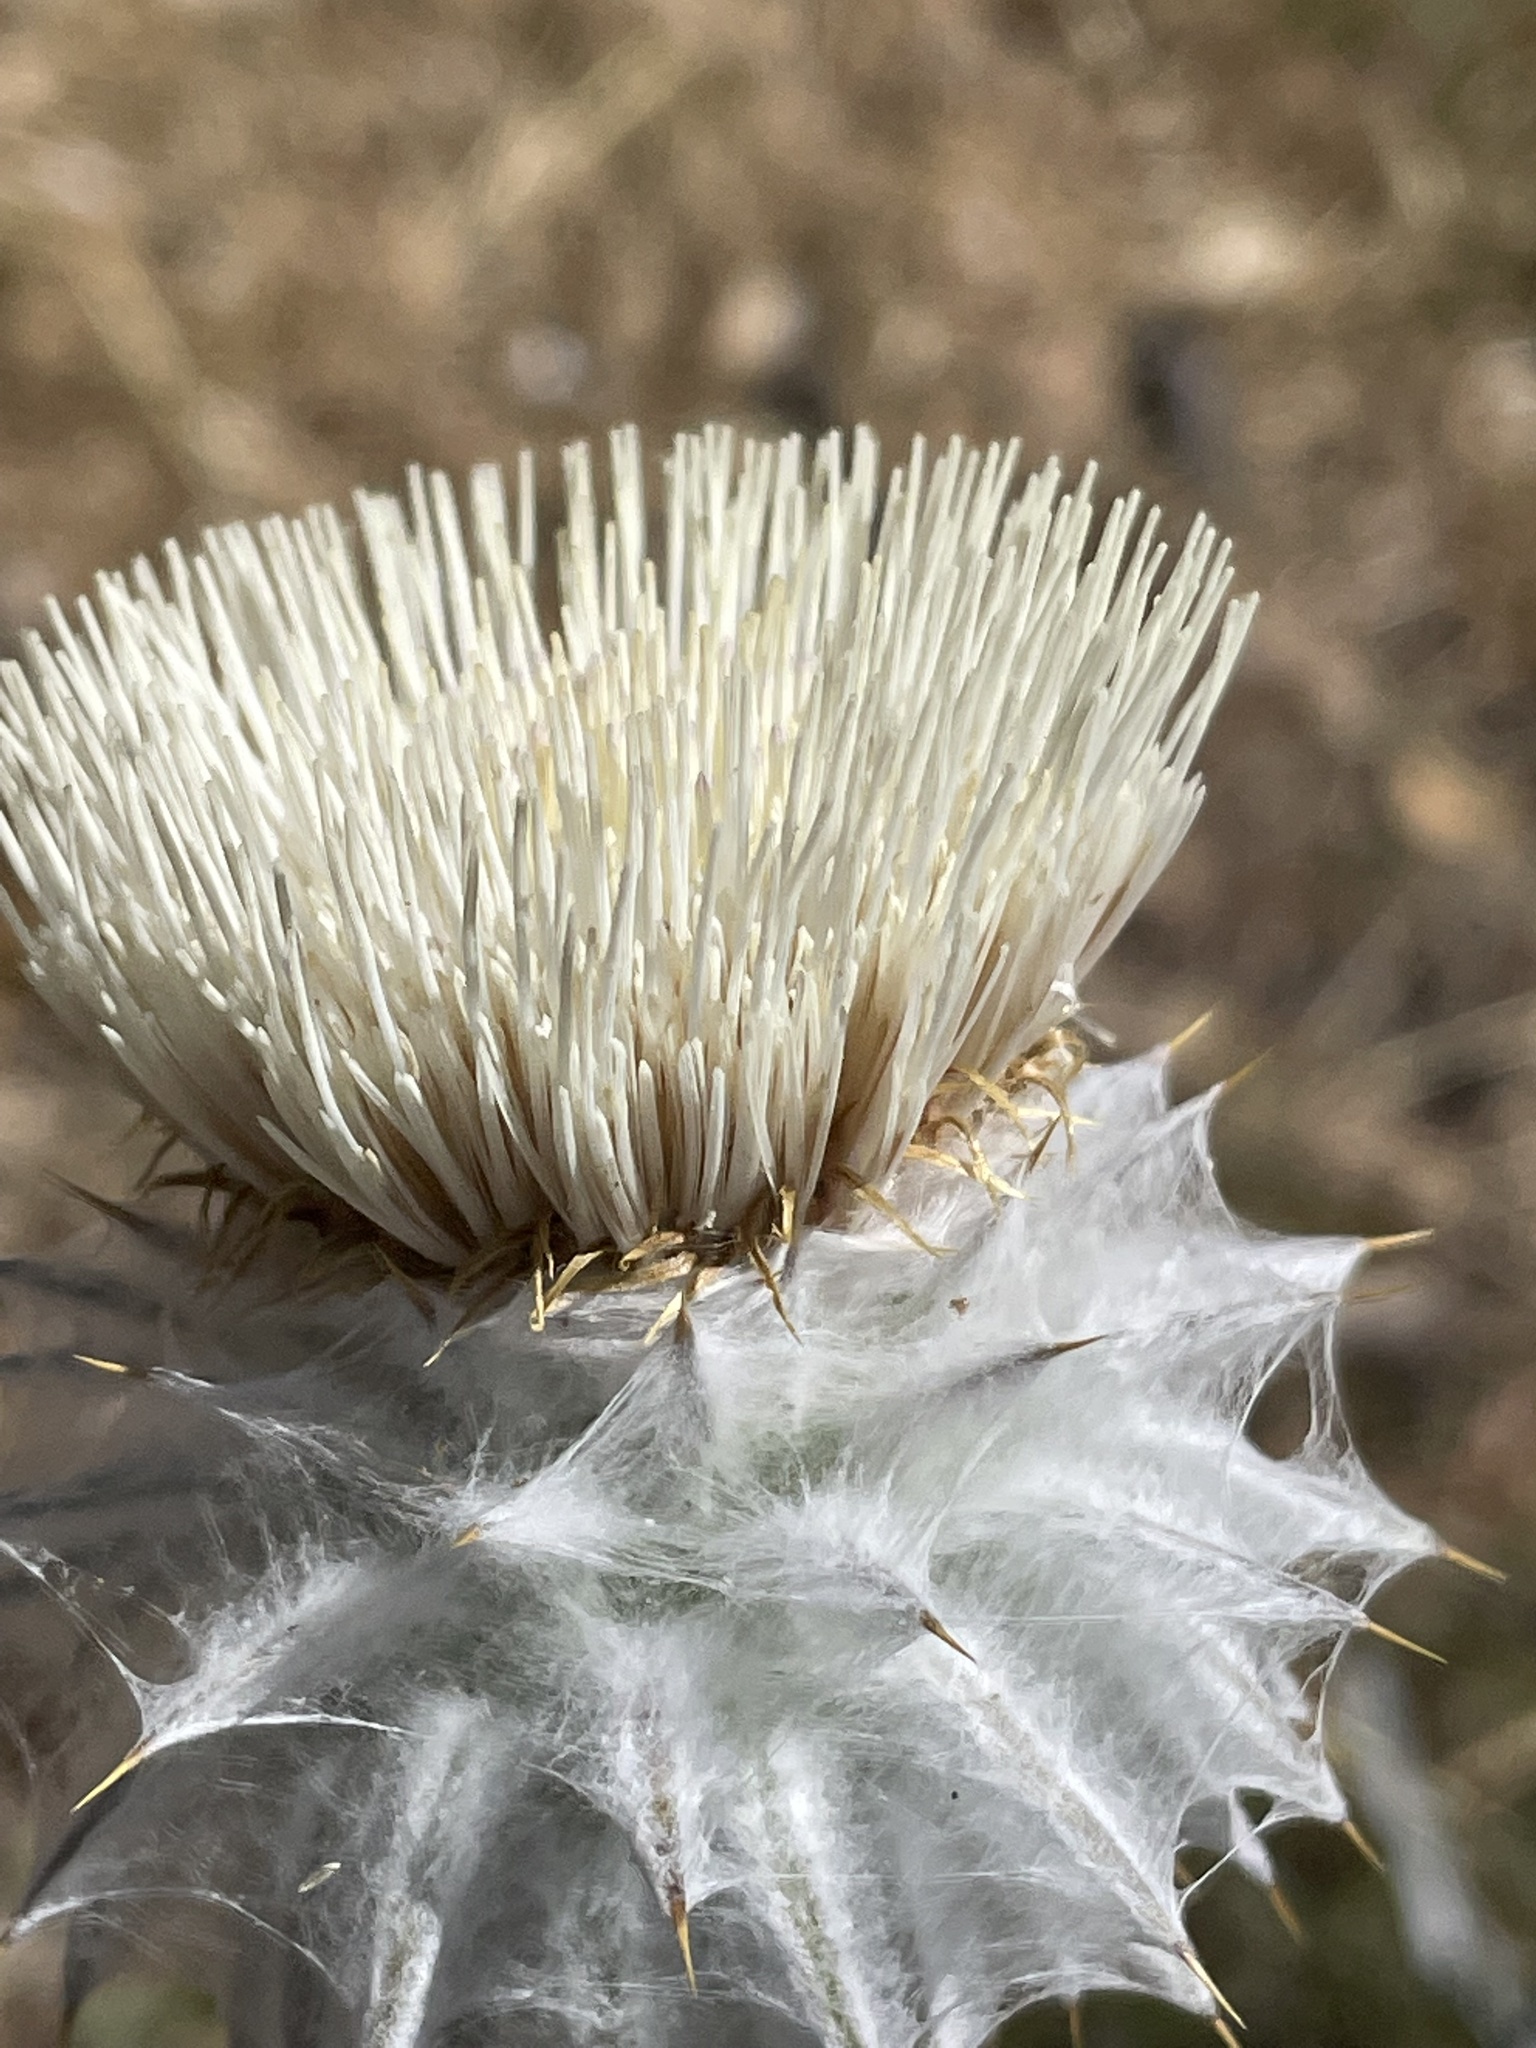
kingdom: Plantae
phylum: Tracheophyta
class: Magnoliopsida
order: Asterales
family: Asteraceae
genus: Cirsium
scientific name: Cirsium occidentale
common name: Western thistle
